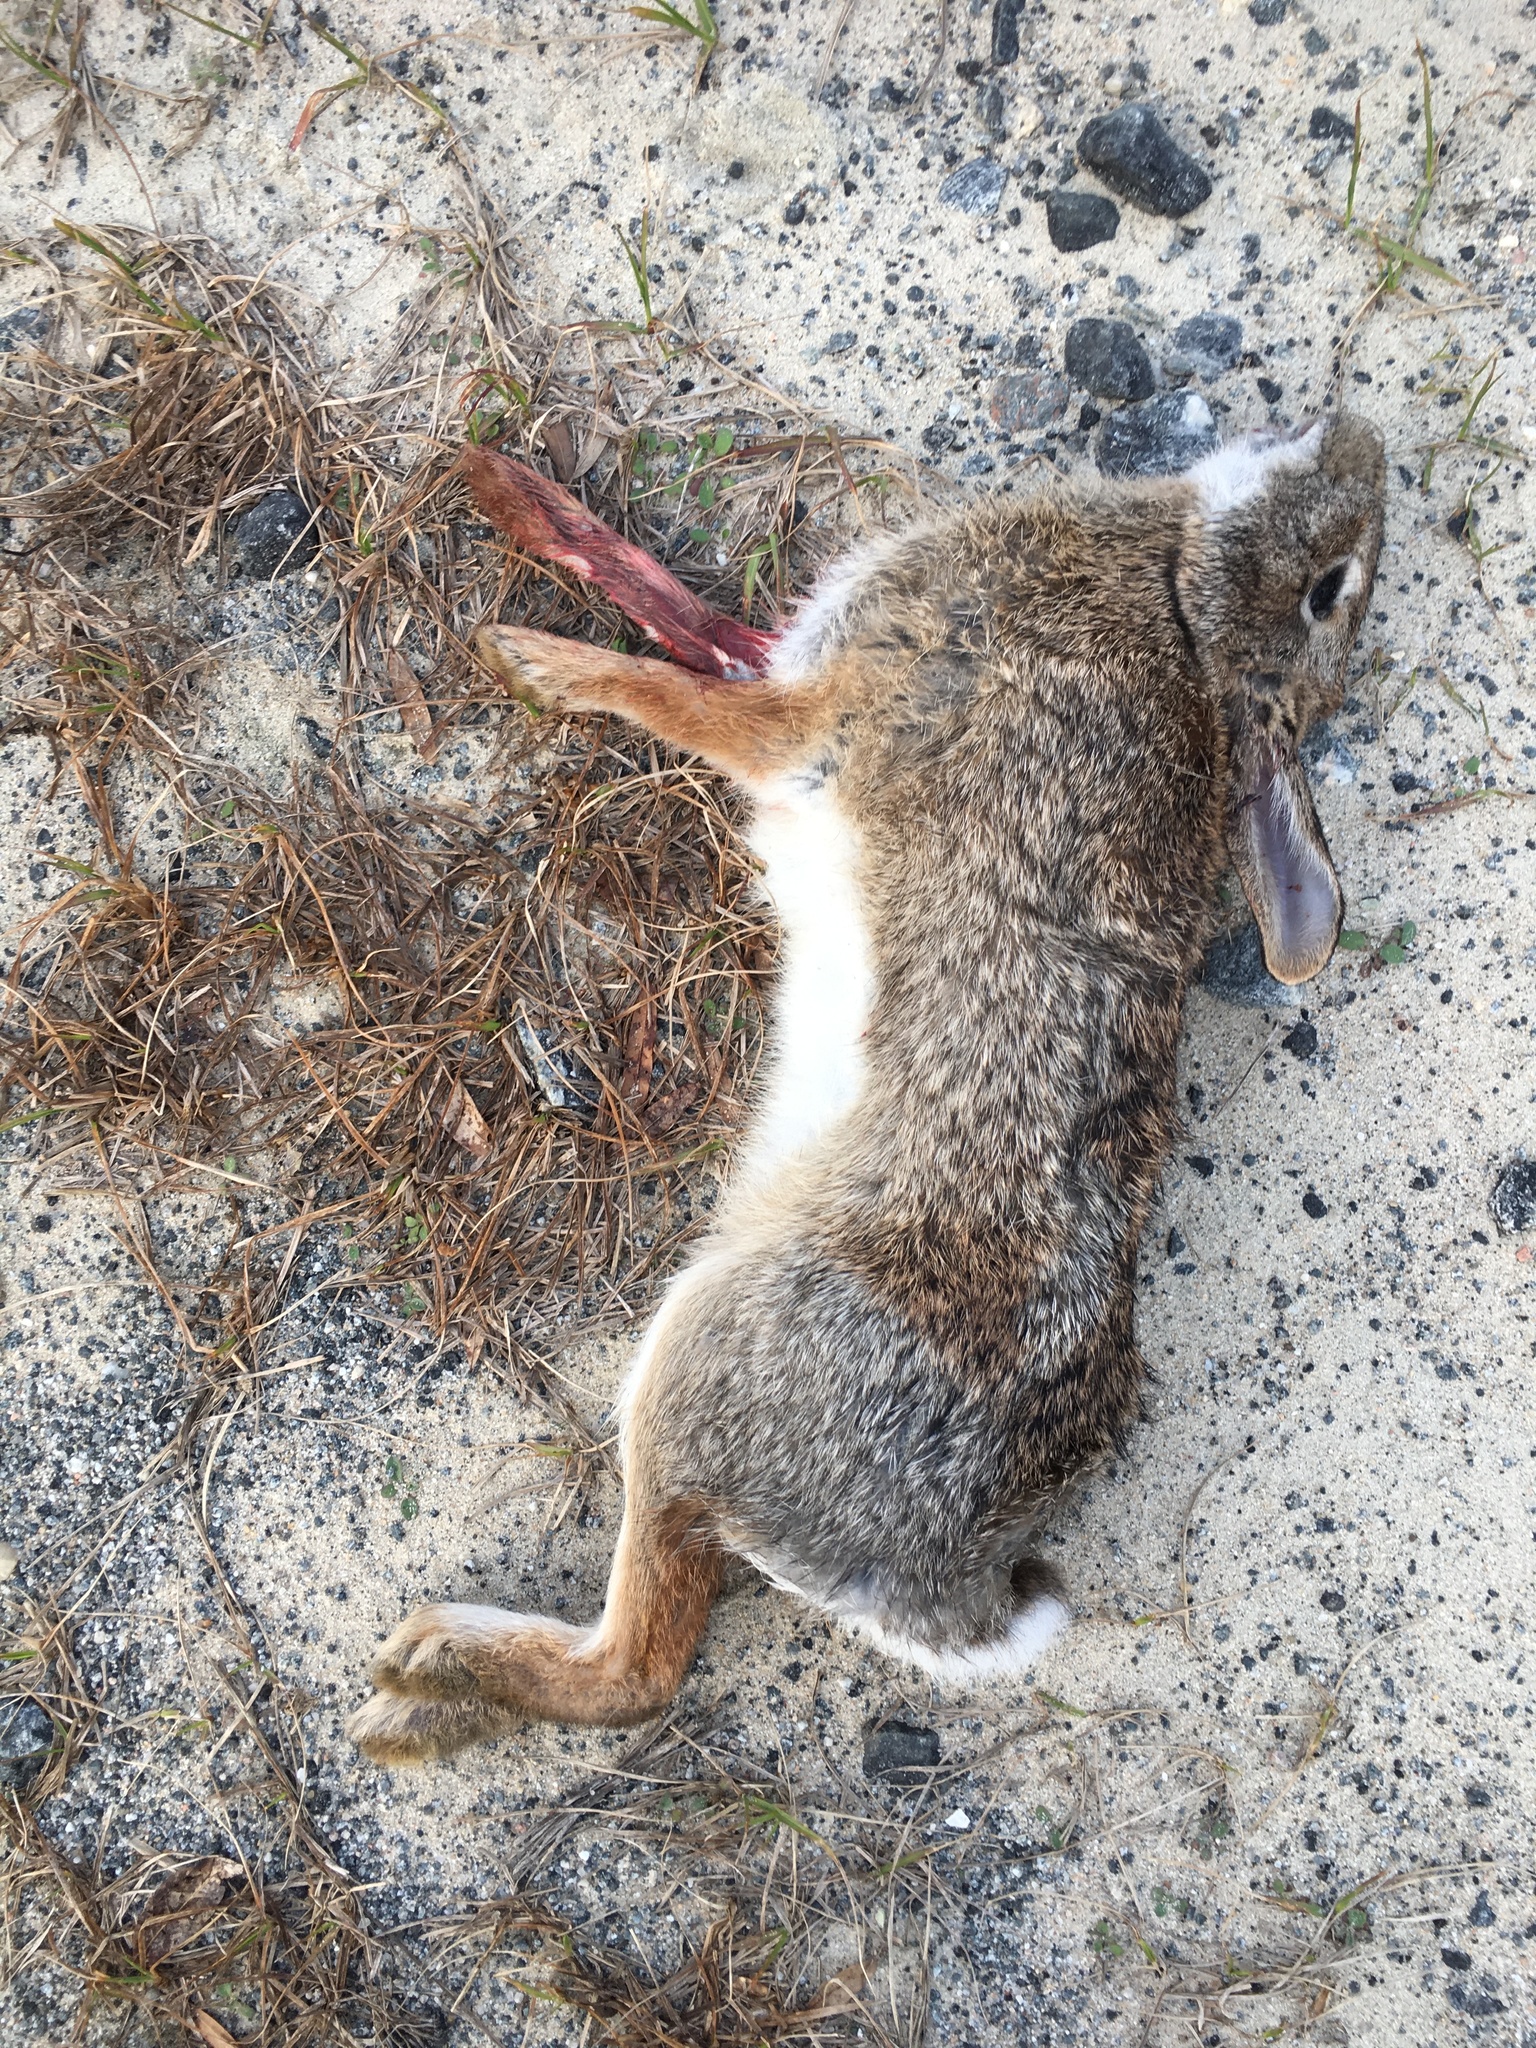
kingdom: Animalia
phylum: Chordata
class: Mammalia
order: Lagomorpha
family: Leporidae
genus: Sylvilagus
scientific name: Sylvilagus floridanus
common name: Eastern cottontail
